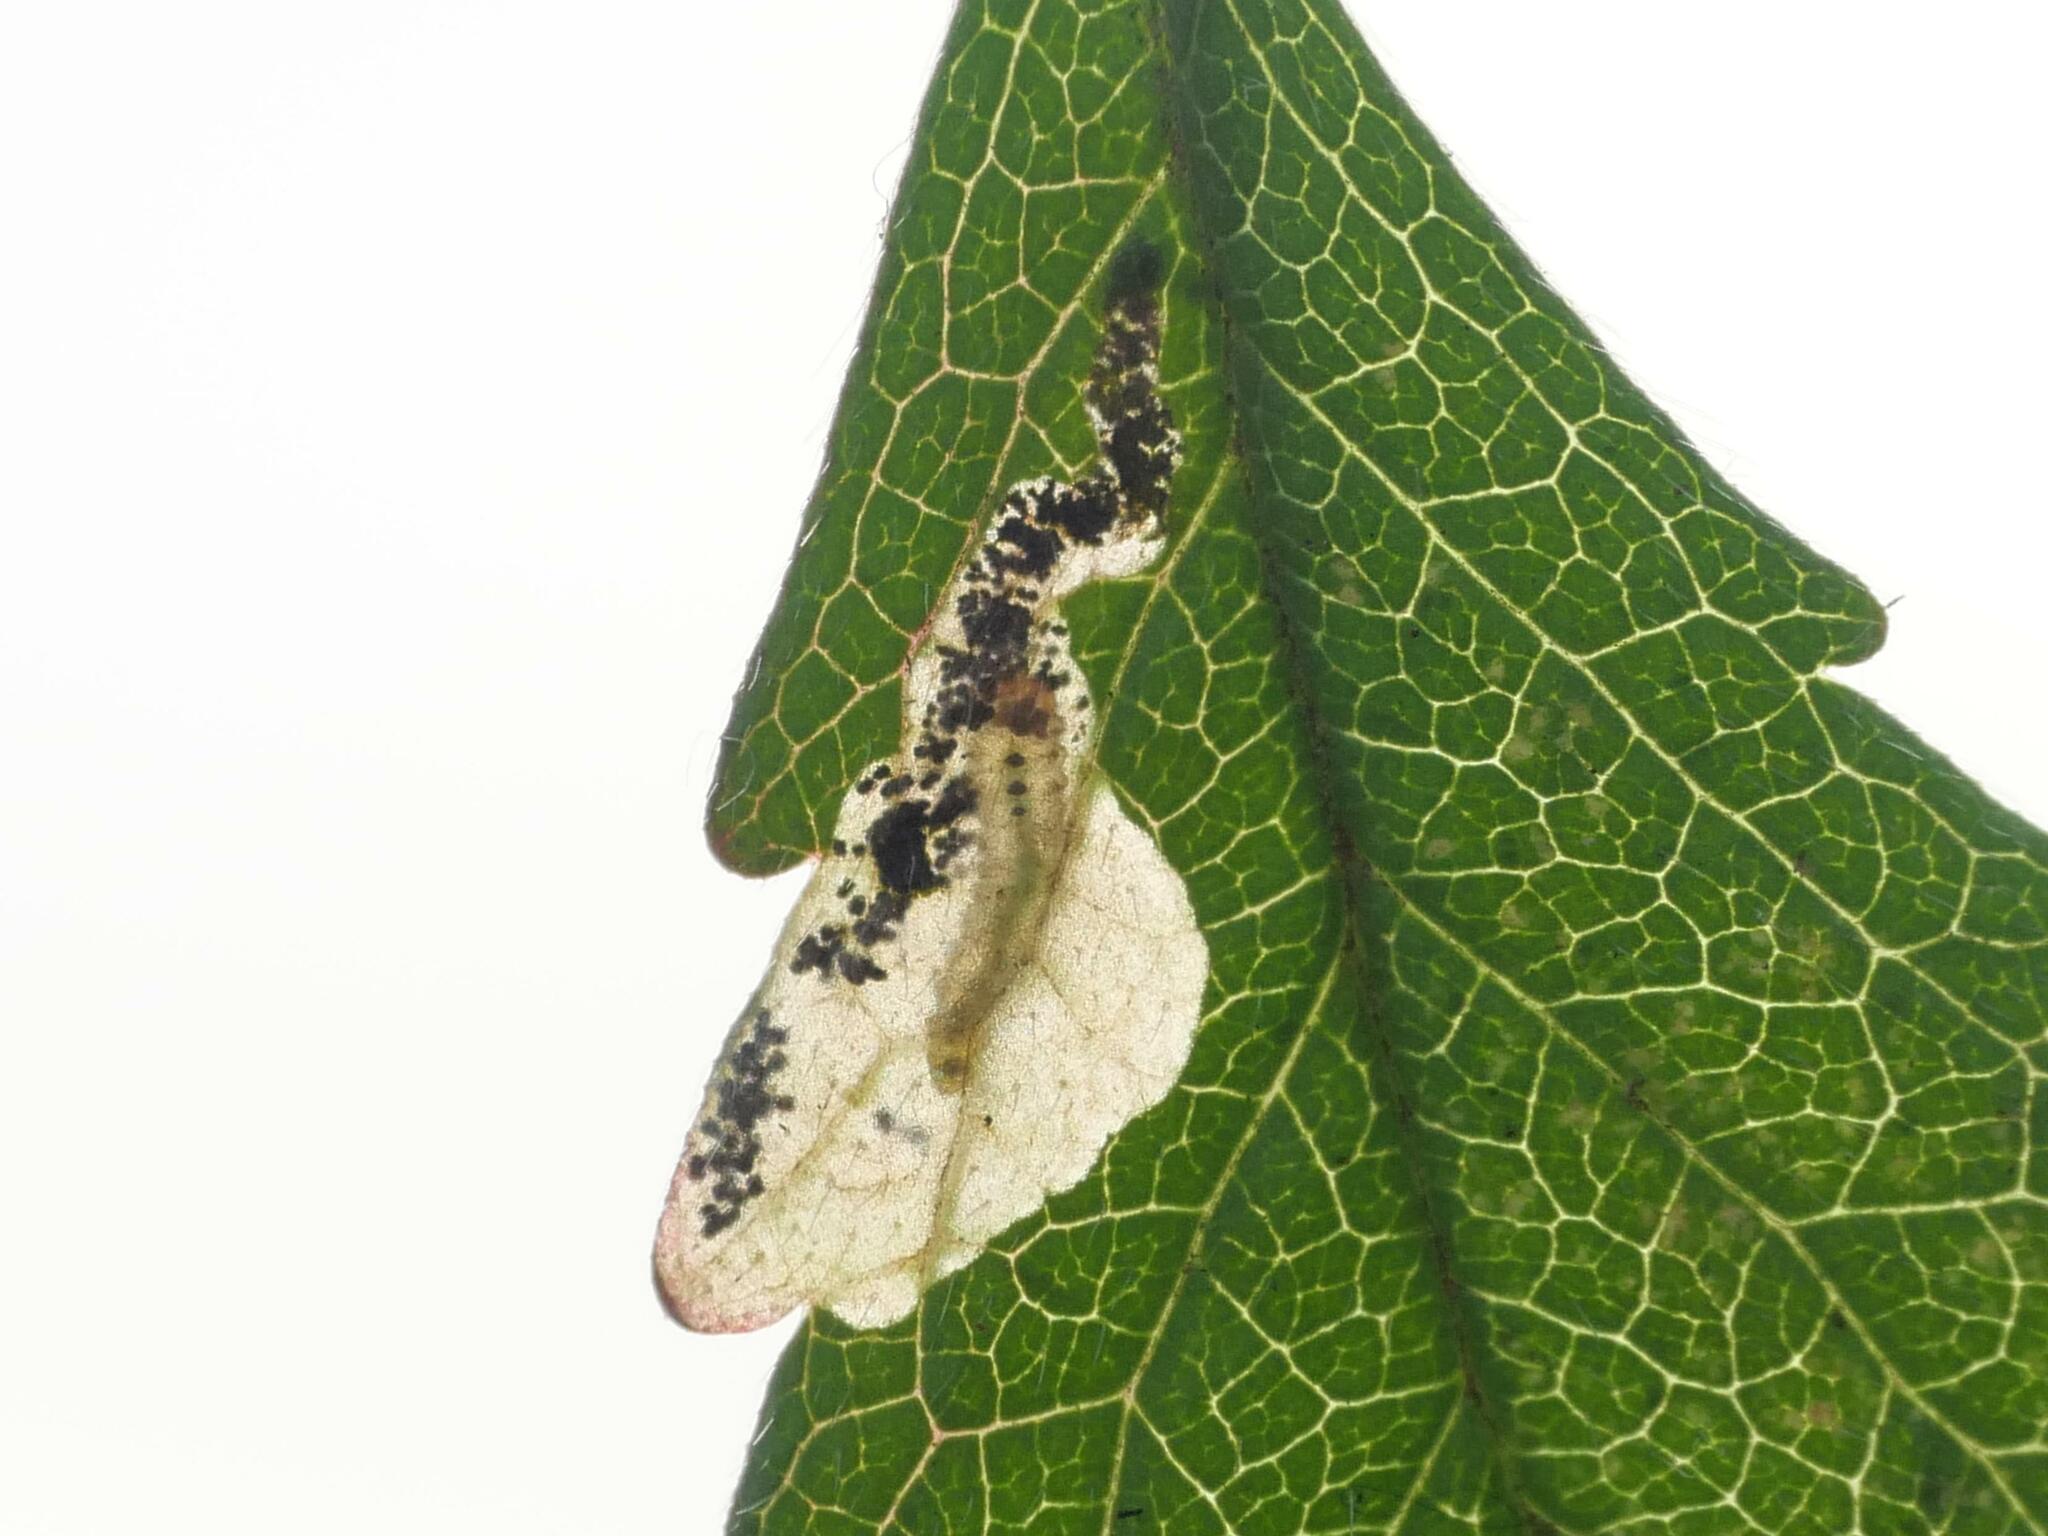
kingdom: Animalia
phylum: Arthropoda
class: Insecta
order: Hymenoptera
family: Tenthredinidae
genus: Fenella
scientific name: Fenella nigrita
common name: Tenthredid wasp
